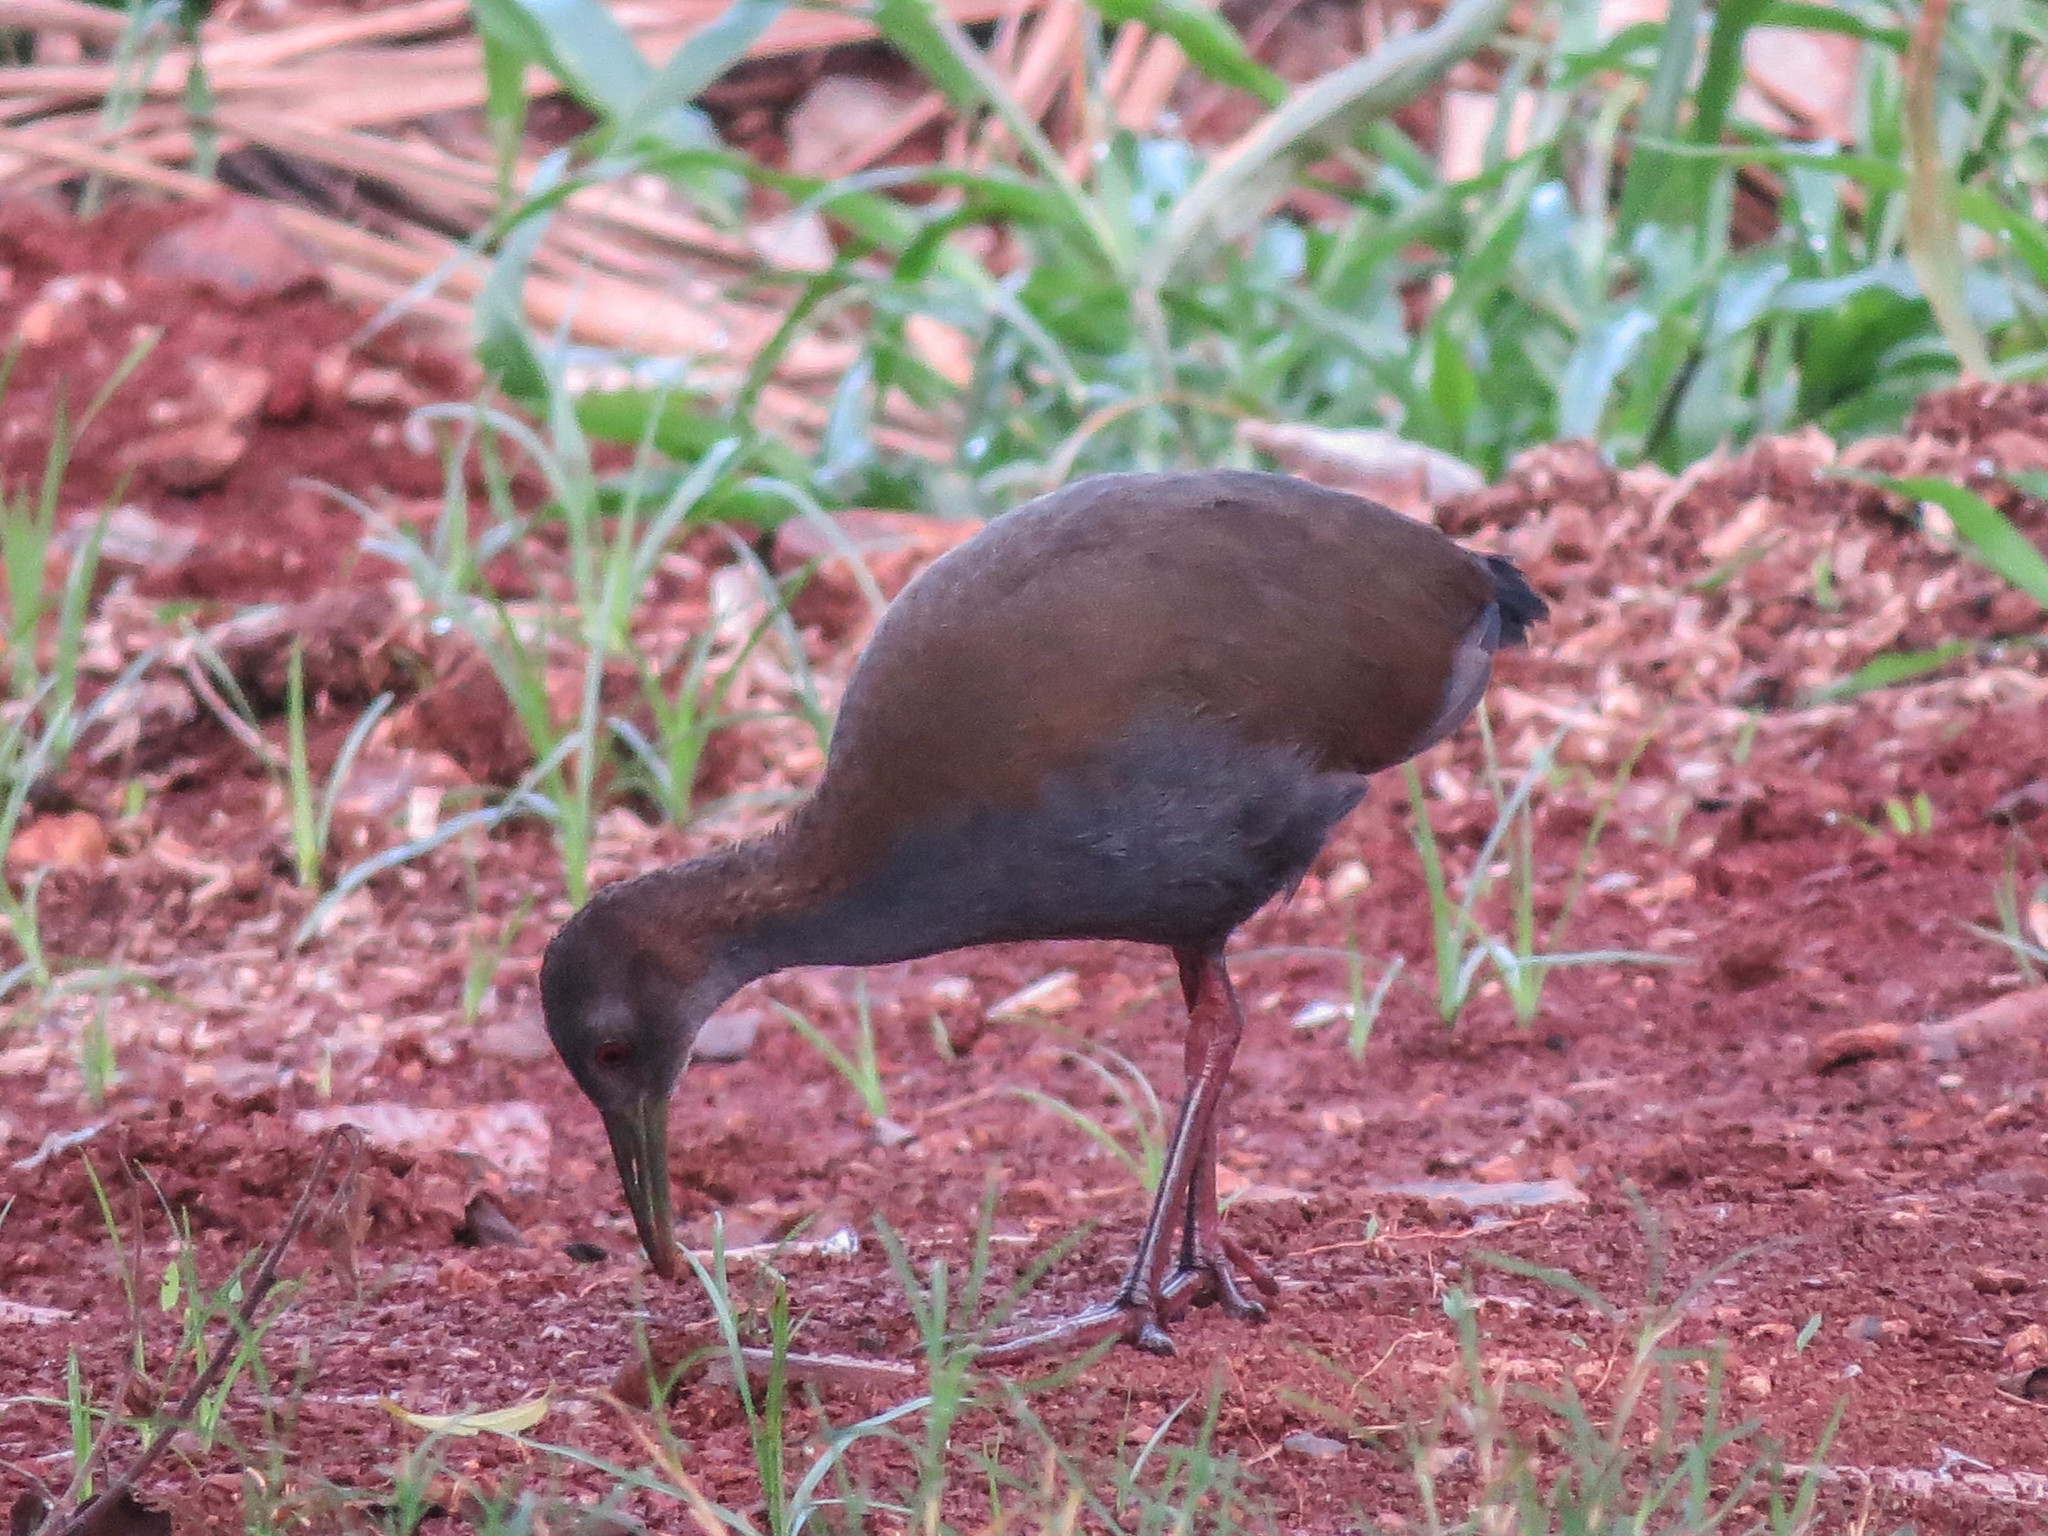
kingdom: Animalia
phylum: Chordata
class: Aves
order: Gruiformes
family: Rallidae
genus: Aramides
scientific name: Aramides saracura
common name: Slaty-breasted wood rail
